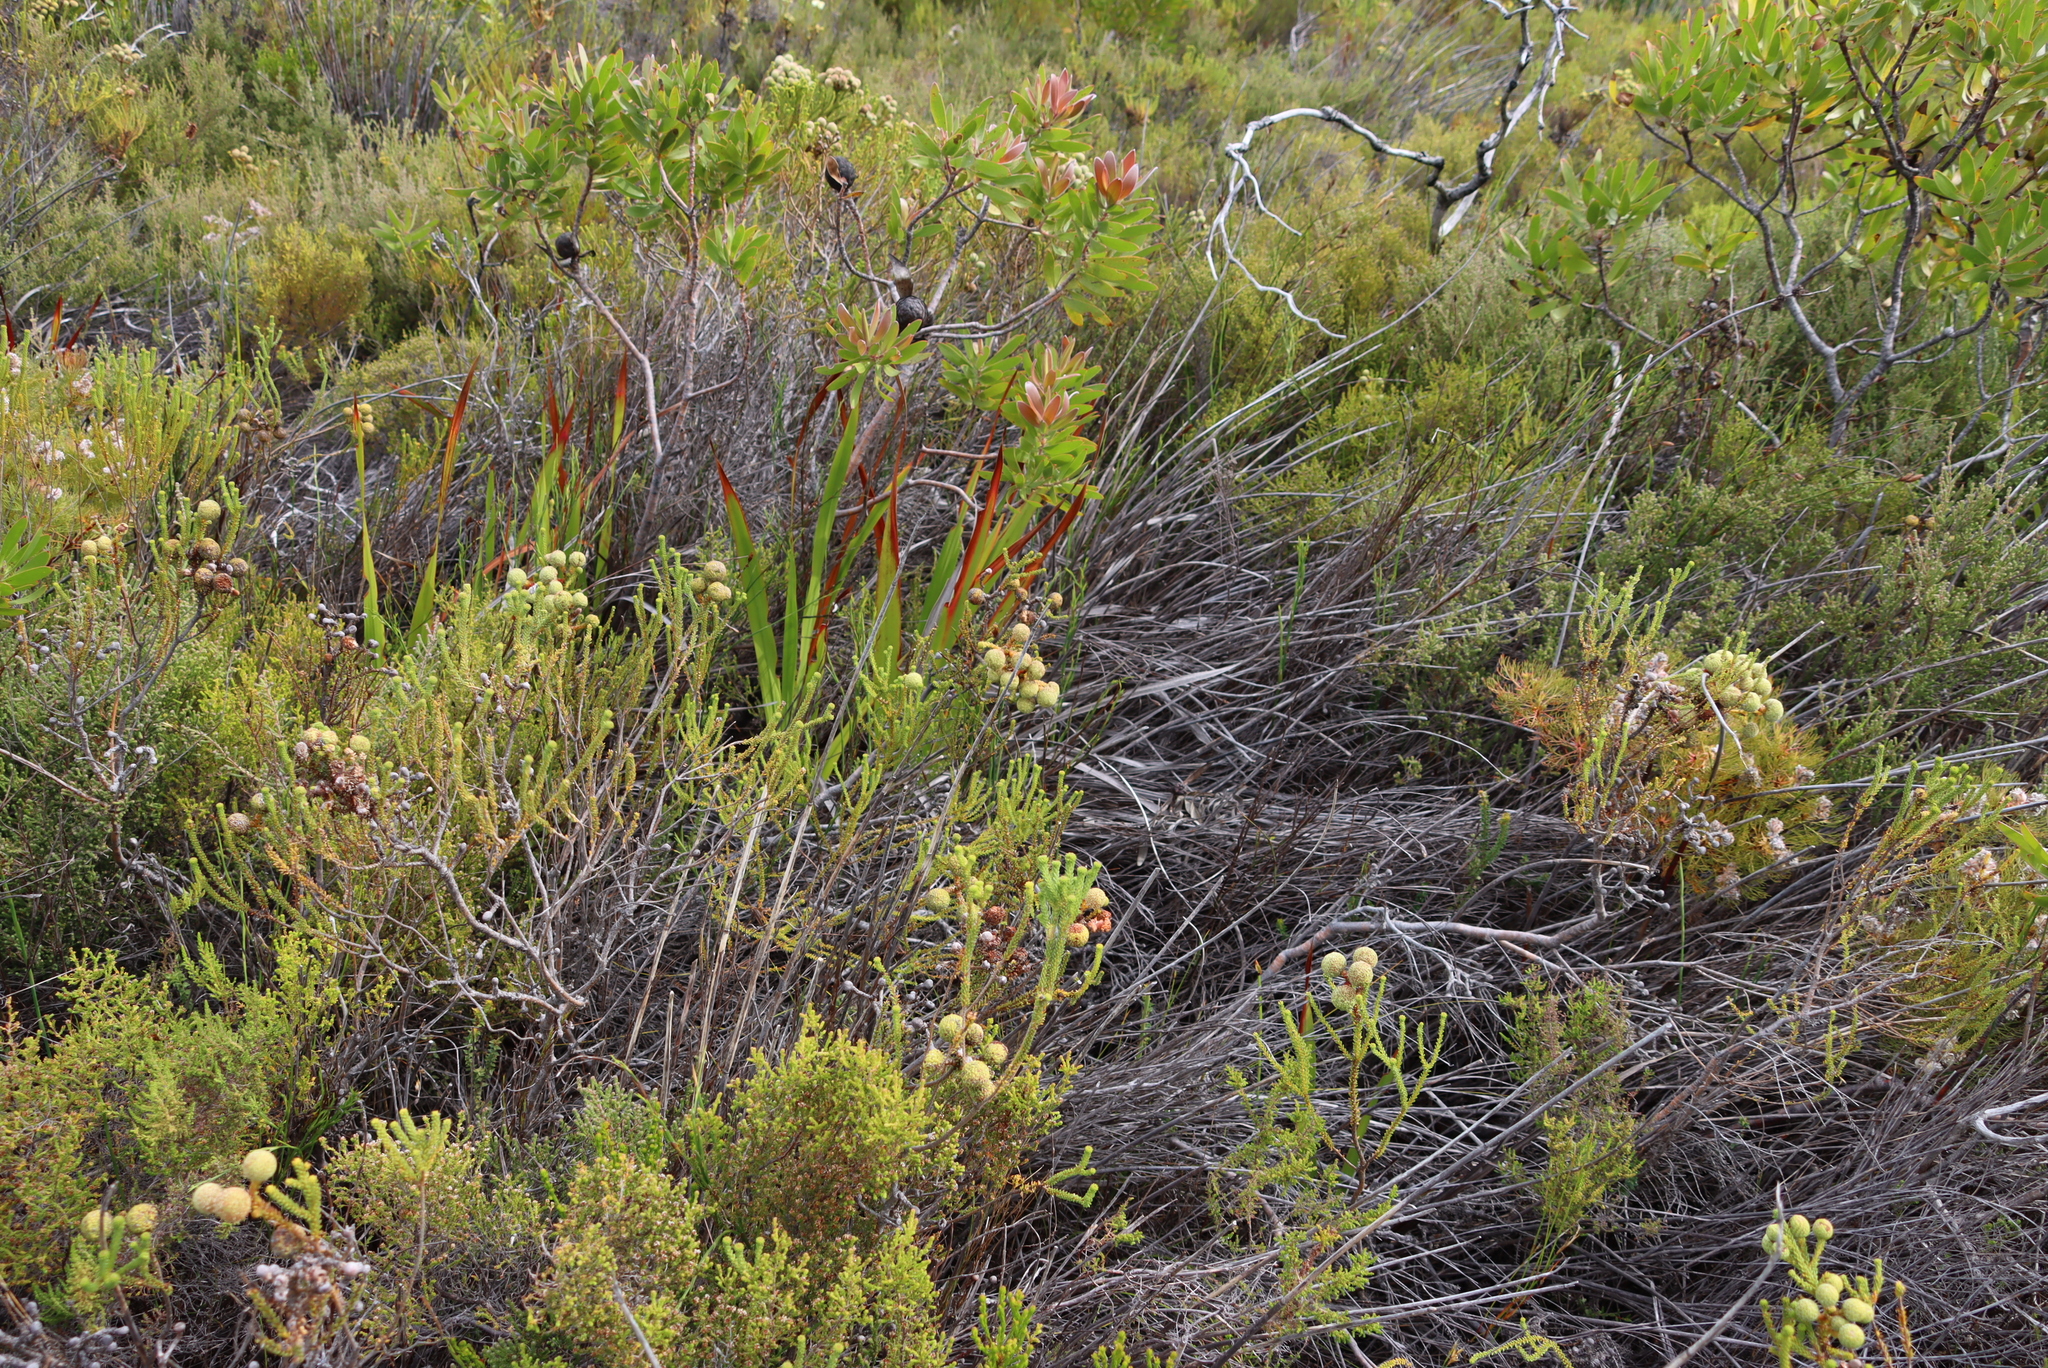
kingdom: Plantae
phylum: Tracheophyta
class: Magnoliopsida
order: Bruniales
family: Bruniaceae
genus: Berzelia
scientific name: Berzelia abrotanoides
